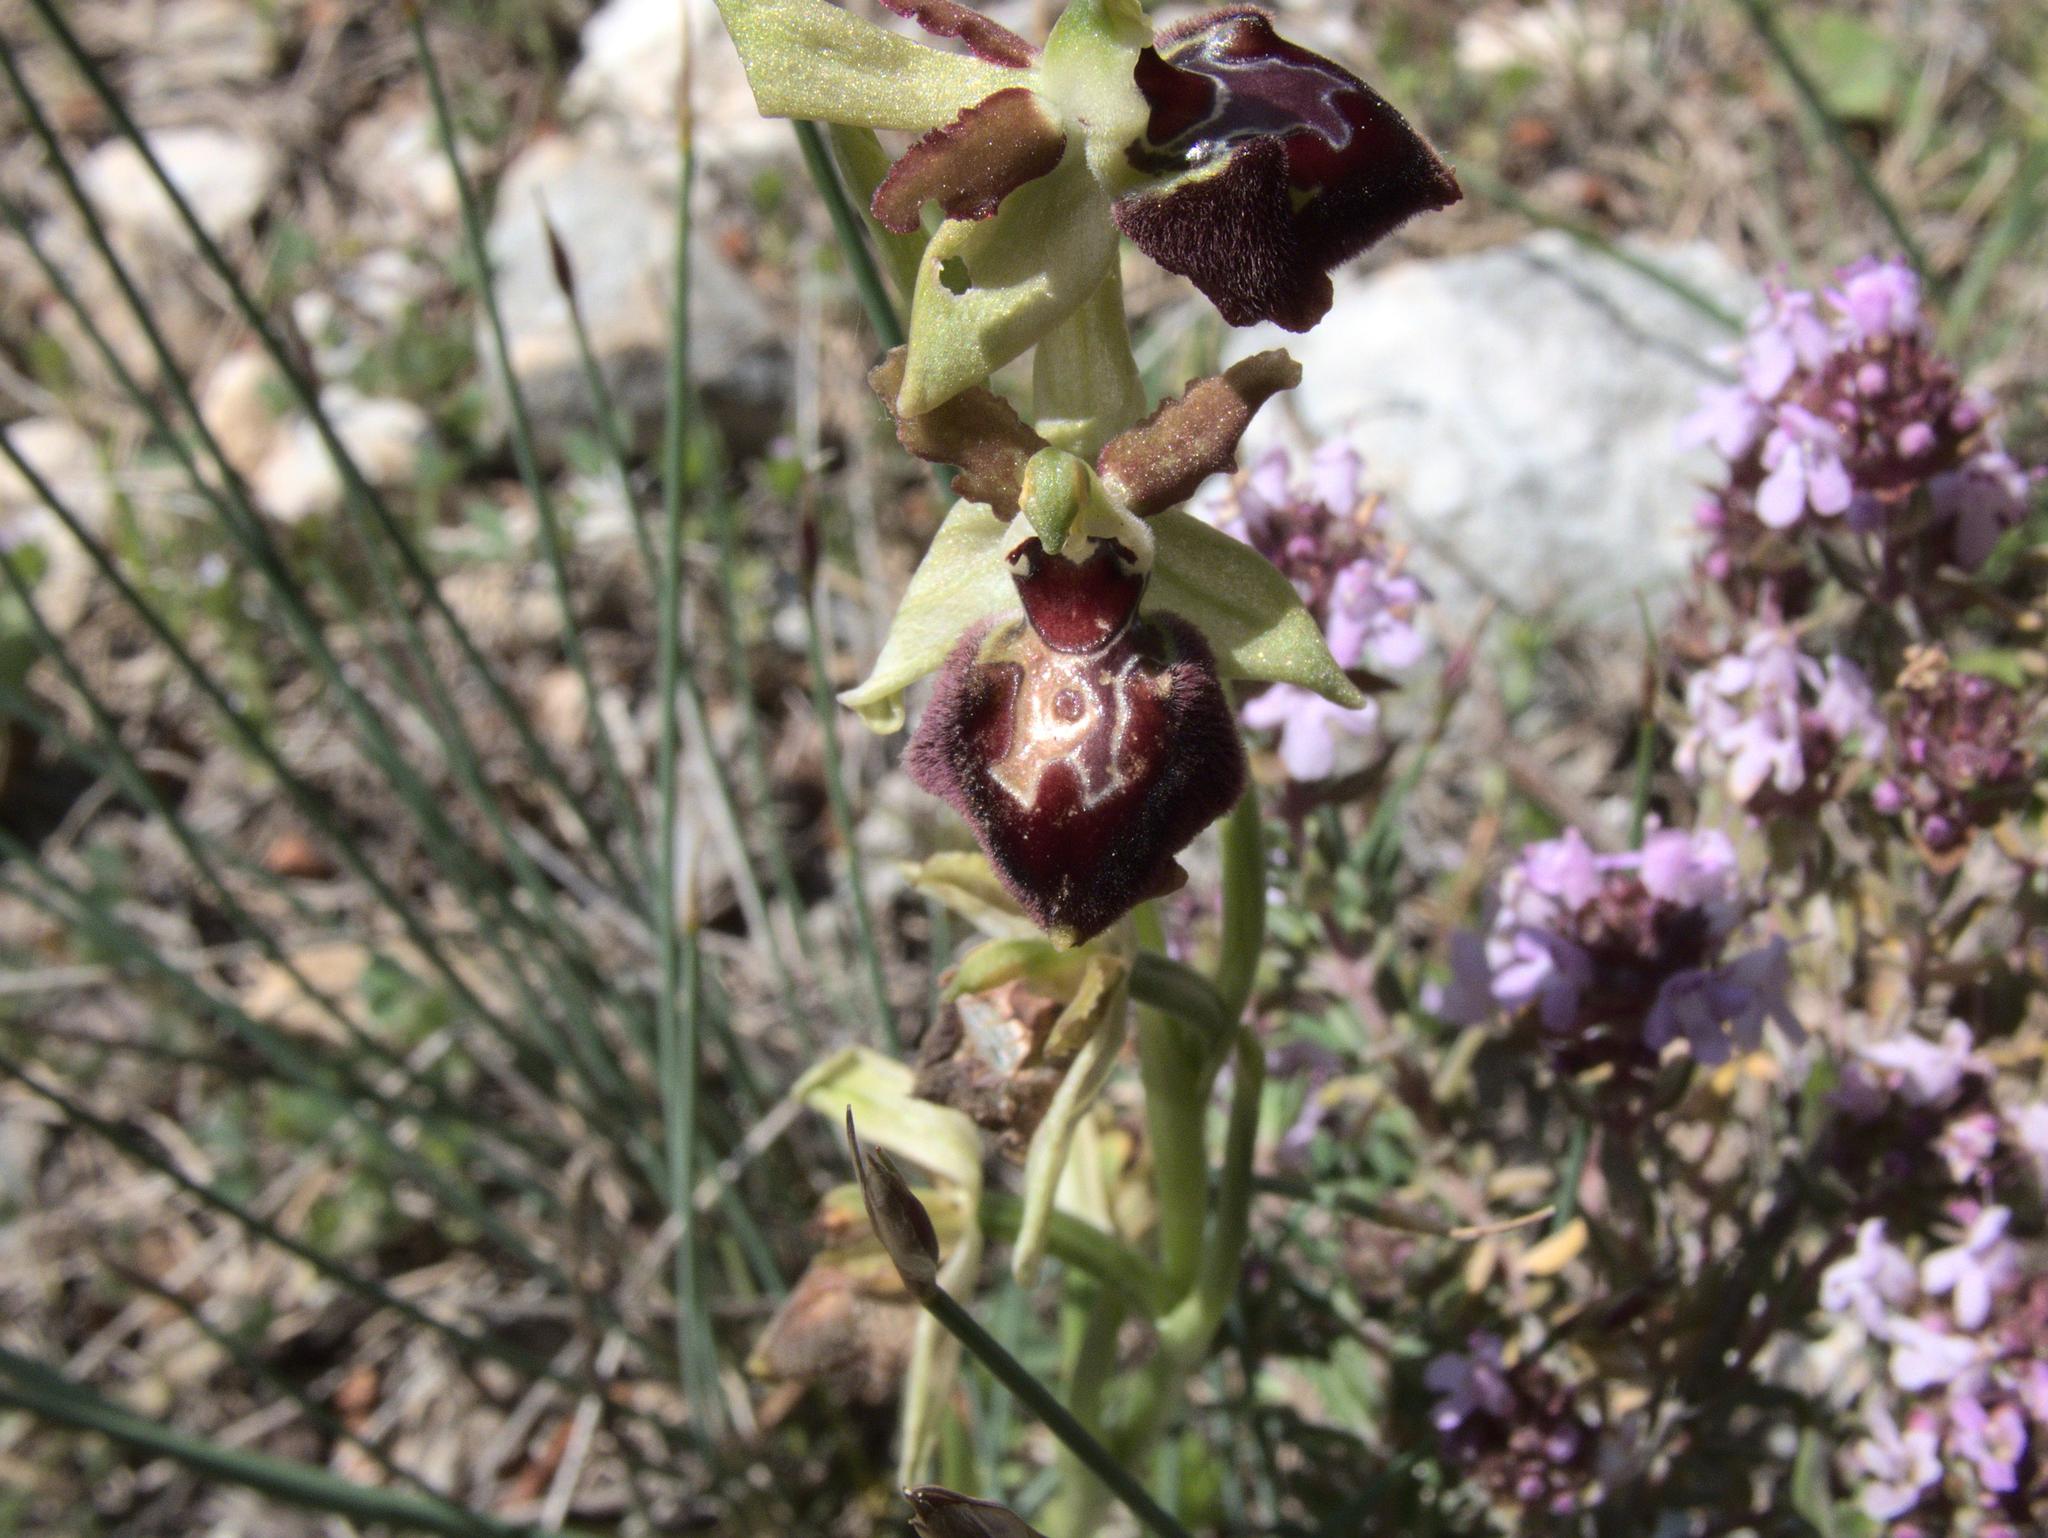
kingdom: Plantae
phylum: Tracheophyta
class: Liliopsida
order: Asparagales
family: Orchidaceae
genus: Ophrys
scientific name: Ophrys sphegodes
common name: Early spider-orchid
